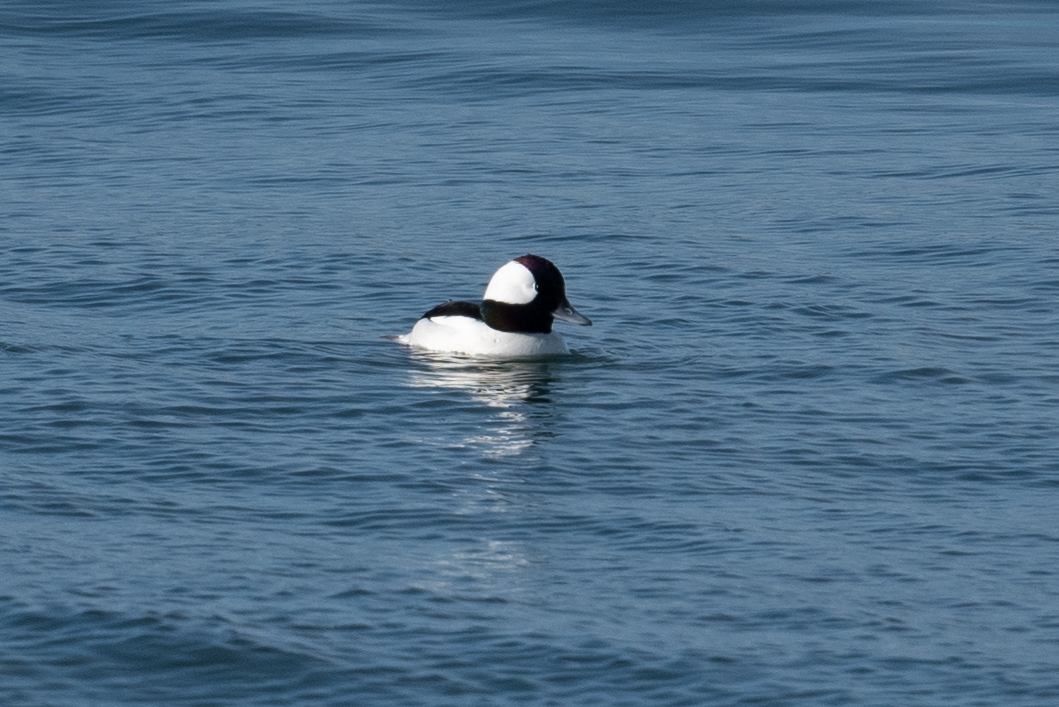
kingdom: Animalia
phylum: Chordata
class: Aves
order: Anseriformes
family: Anatidae
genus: Bucephala
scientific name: Bucephala albeola
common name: Bufflehead
